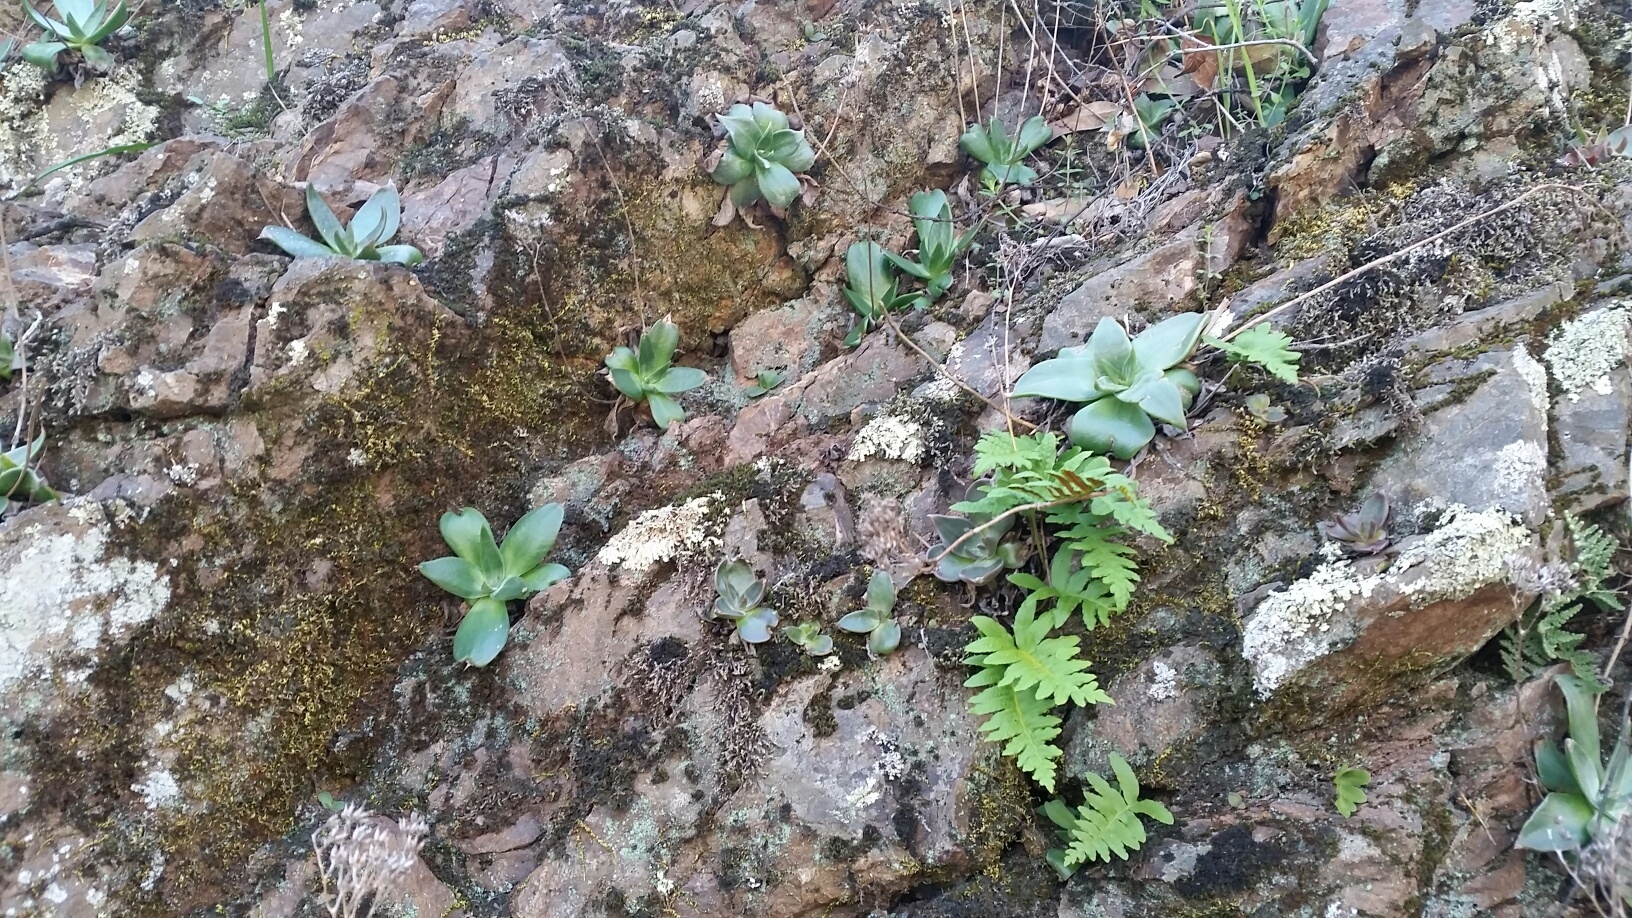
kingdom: Plantae
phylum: Tracheophyta
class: Magnoliopsida
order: Saxifragales
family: Crassulaceae
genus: Dudleya
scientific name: Dudleya cymosa
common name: Canyon dudleya
